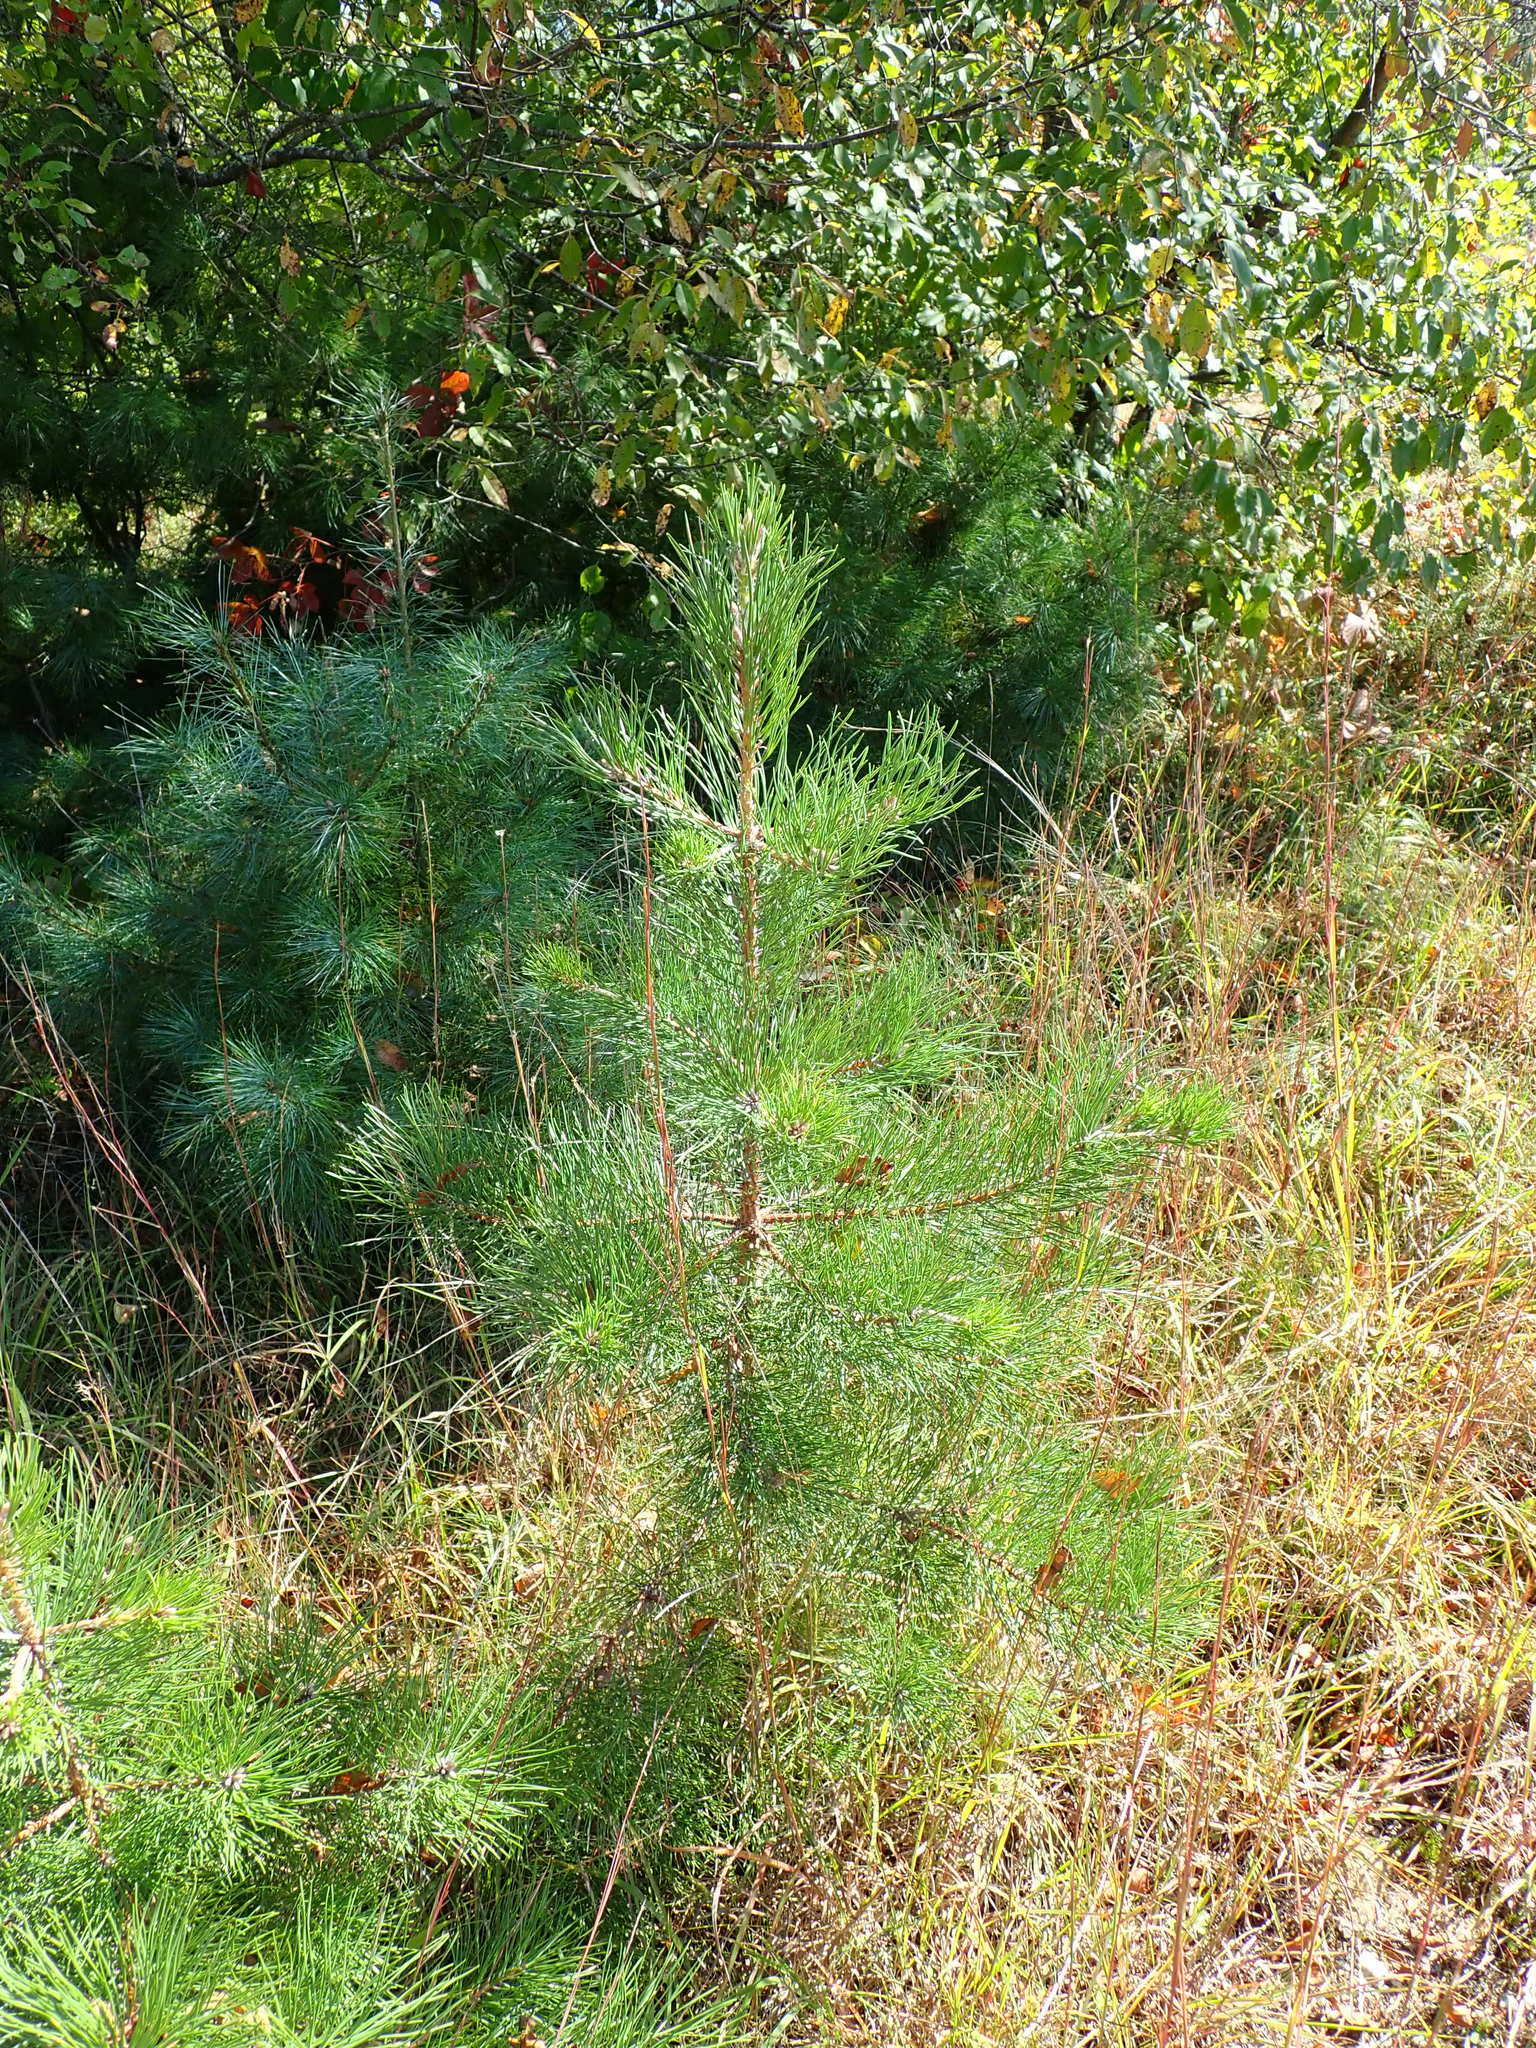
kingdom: Plantae
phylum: Tracheophyta
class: Pinopsida
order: Pinales
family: Pinaceae
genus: Pinus
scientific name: Pinus rigida
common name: Pitch pine
